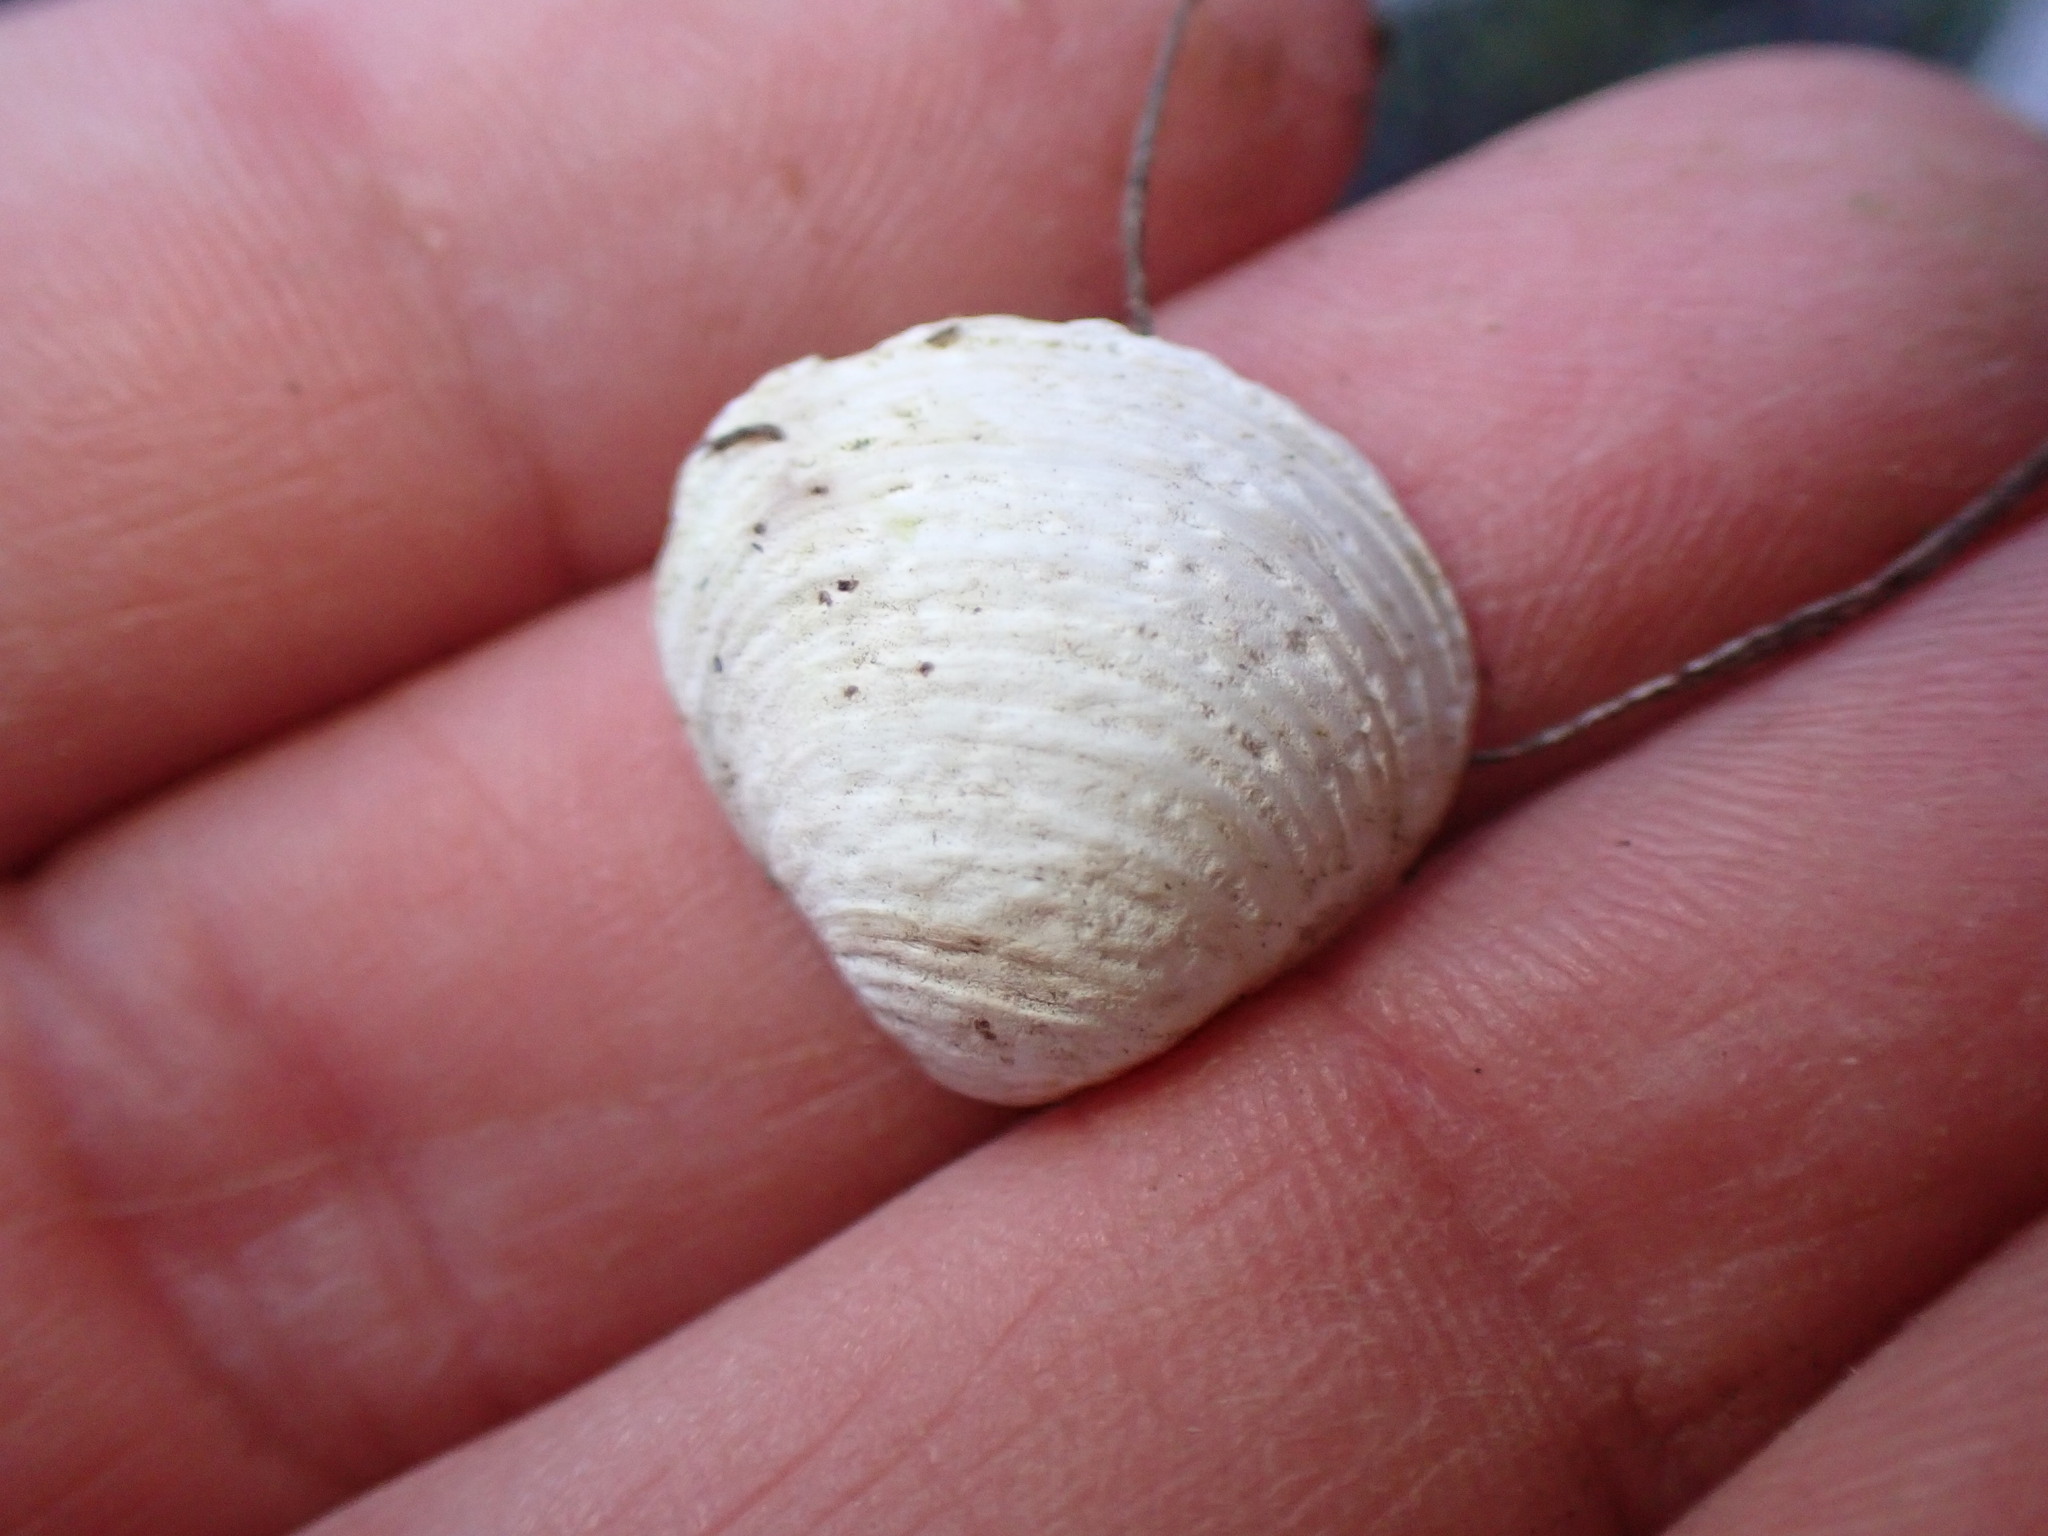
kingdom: Animalia
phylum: Mollusca
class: Bivalvia
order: Venerida
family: Cyrenidae
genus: Corbicula
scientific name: Corbicula fluminea
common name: Asian clam
